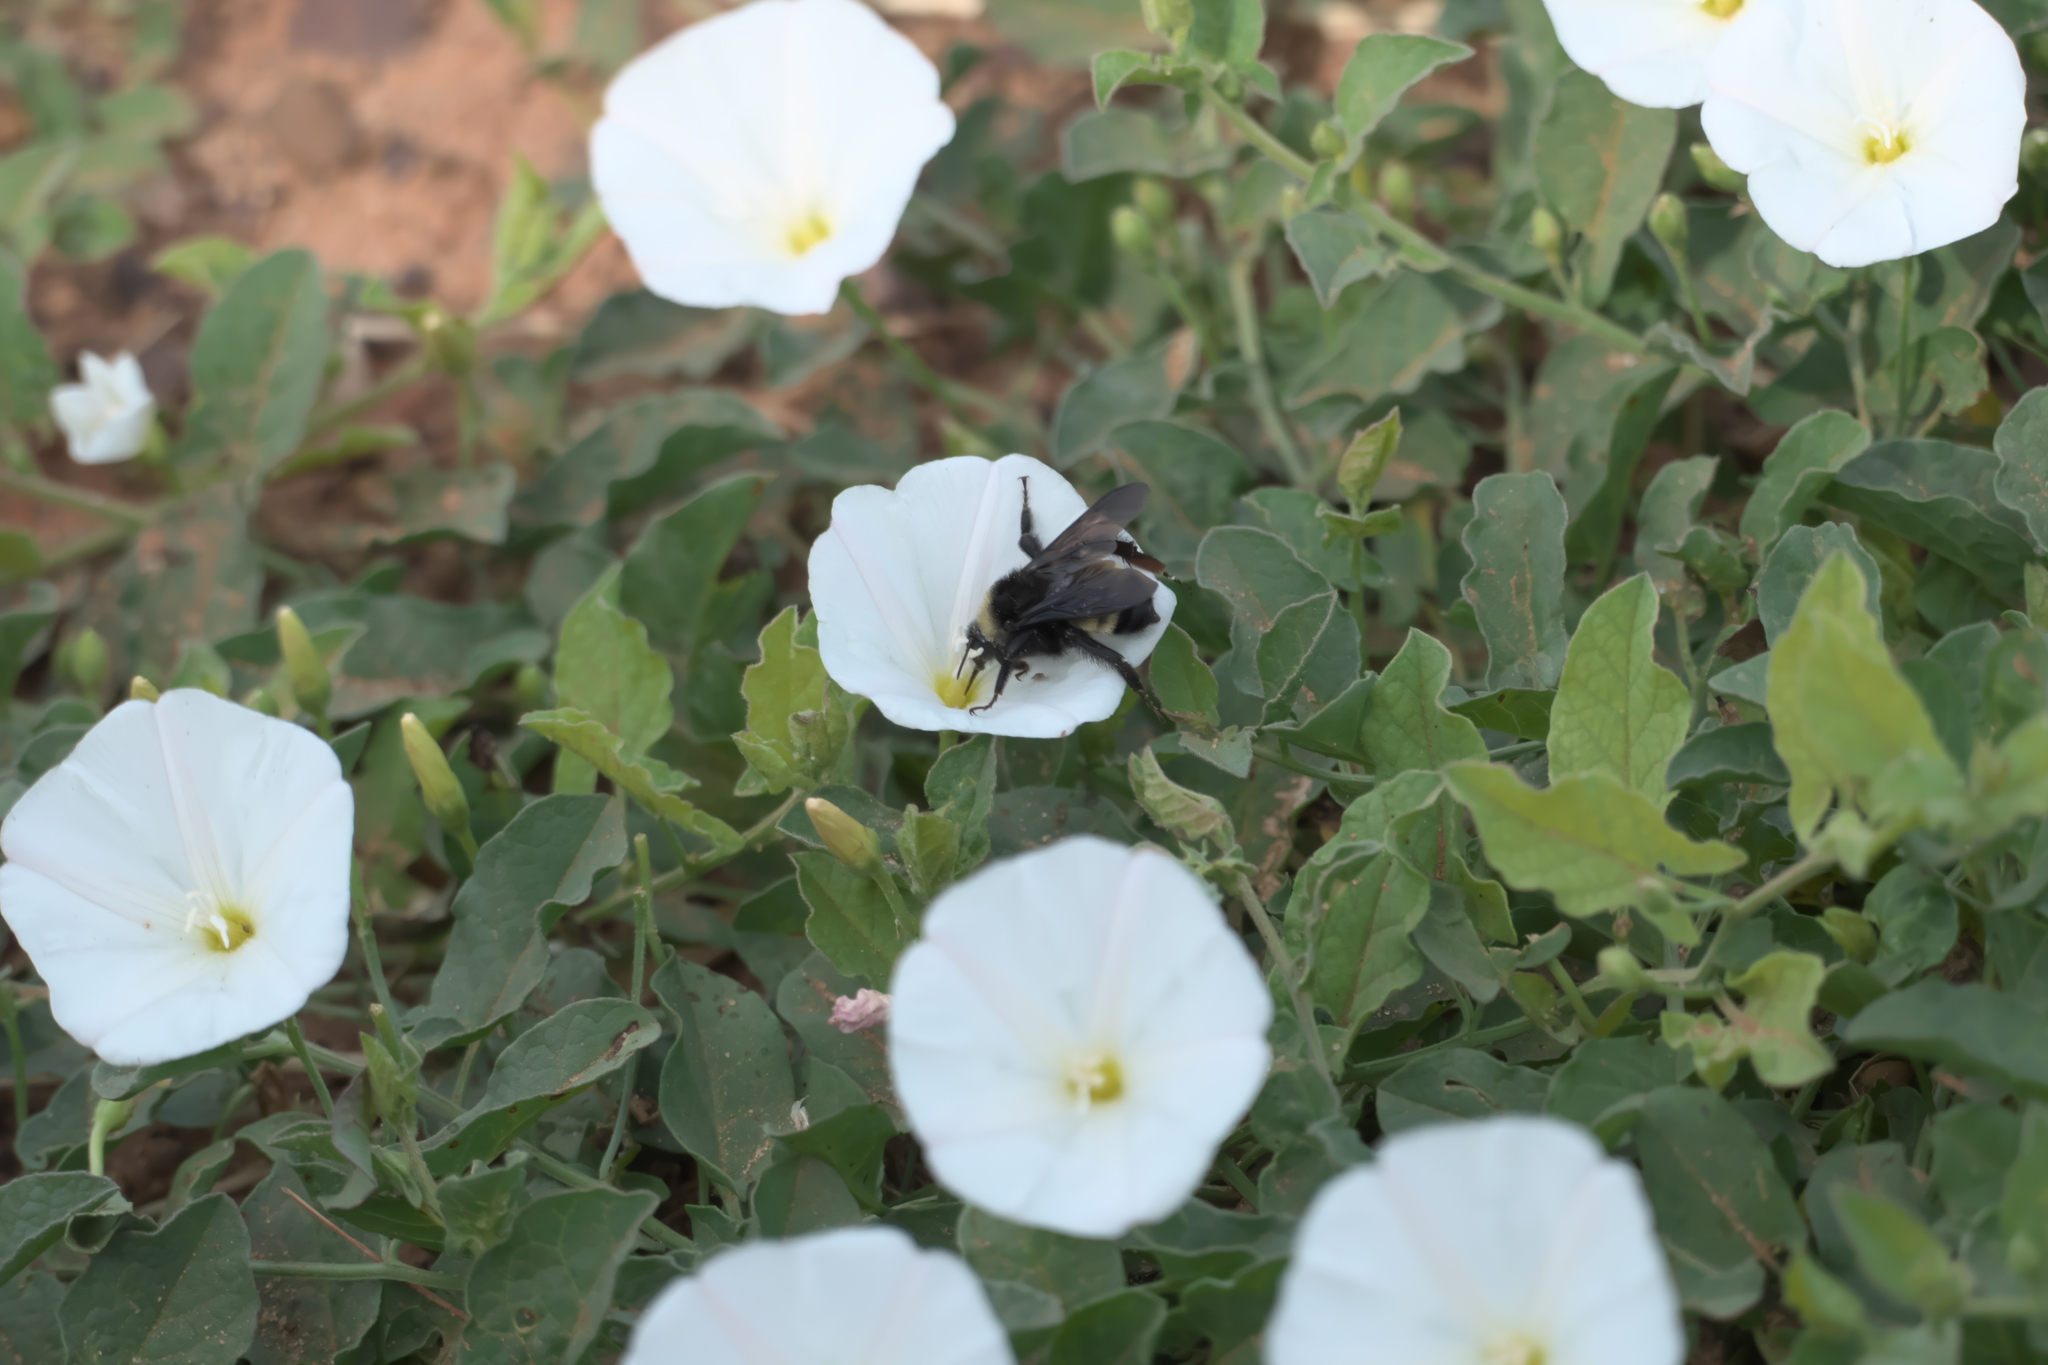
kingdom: Plantae
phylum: Tracheophyta
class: Magnoliopsida
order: Solanales
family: Convolvulaceae
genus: Convolvulus
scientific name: Convolvulus arvensis
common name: Field bindweed
